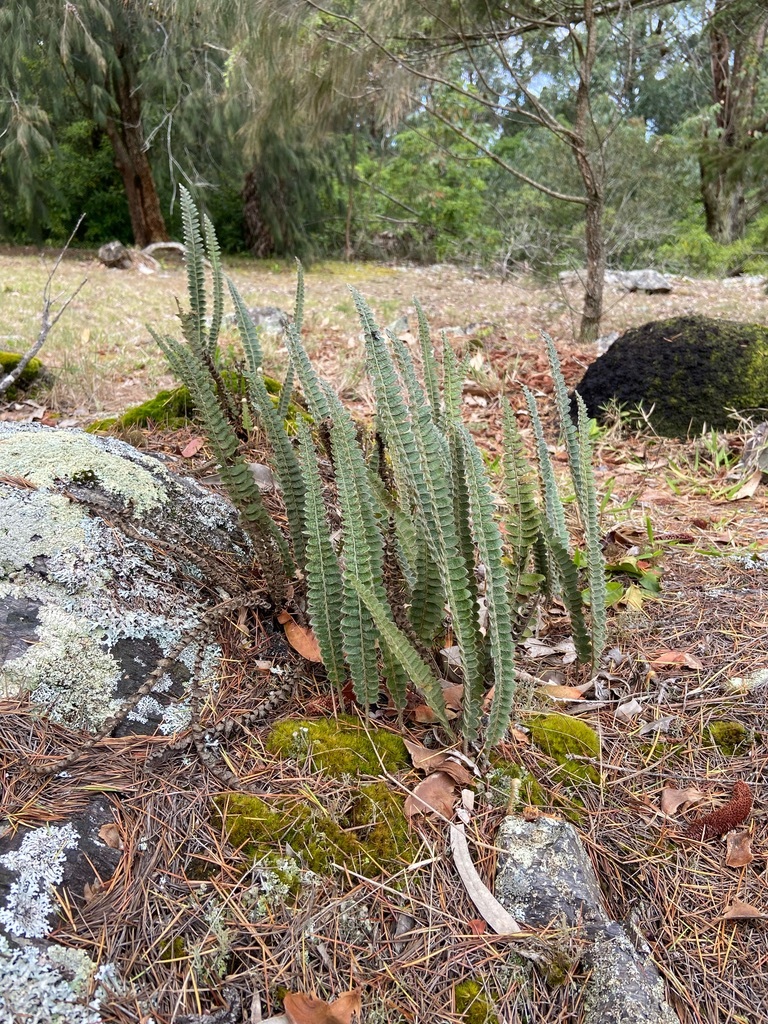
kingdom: Plantae
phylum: Tracheophyta
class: Polypodiopsida
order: Polypodiales
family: Polypodiaceae
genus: Pleopeltis
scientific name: Pleopeltis lepidopteris
